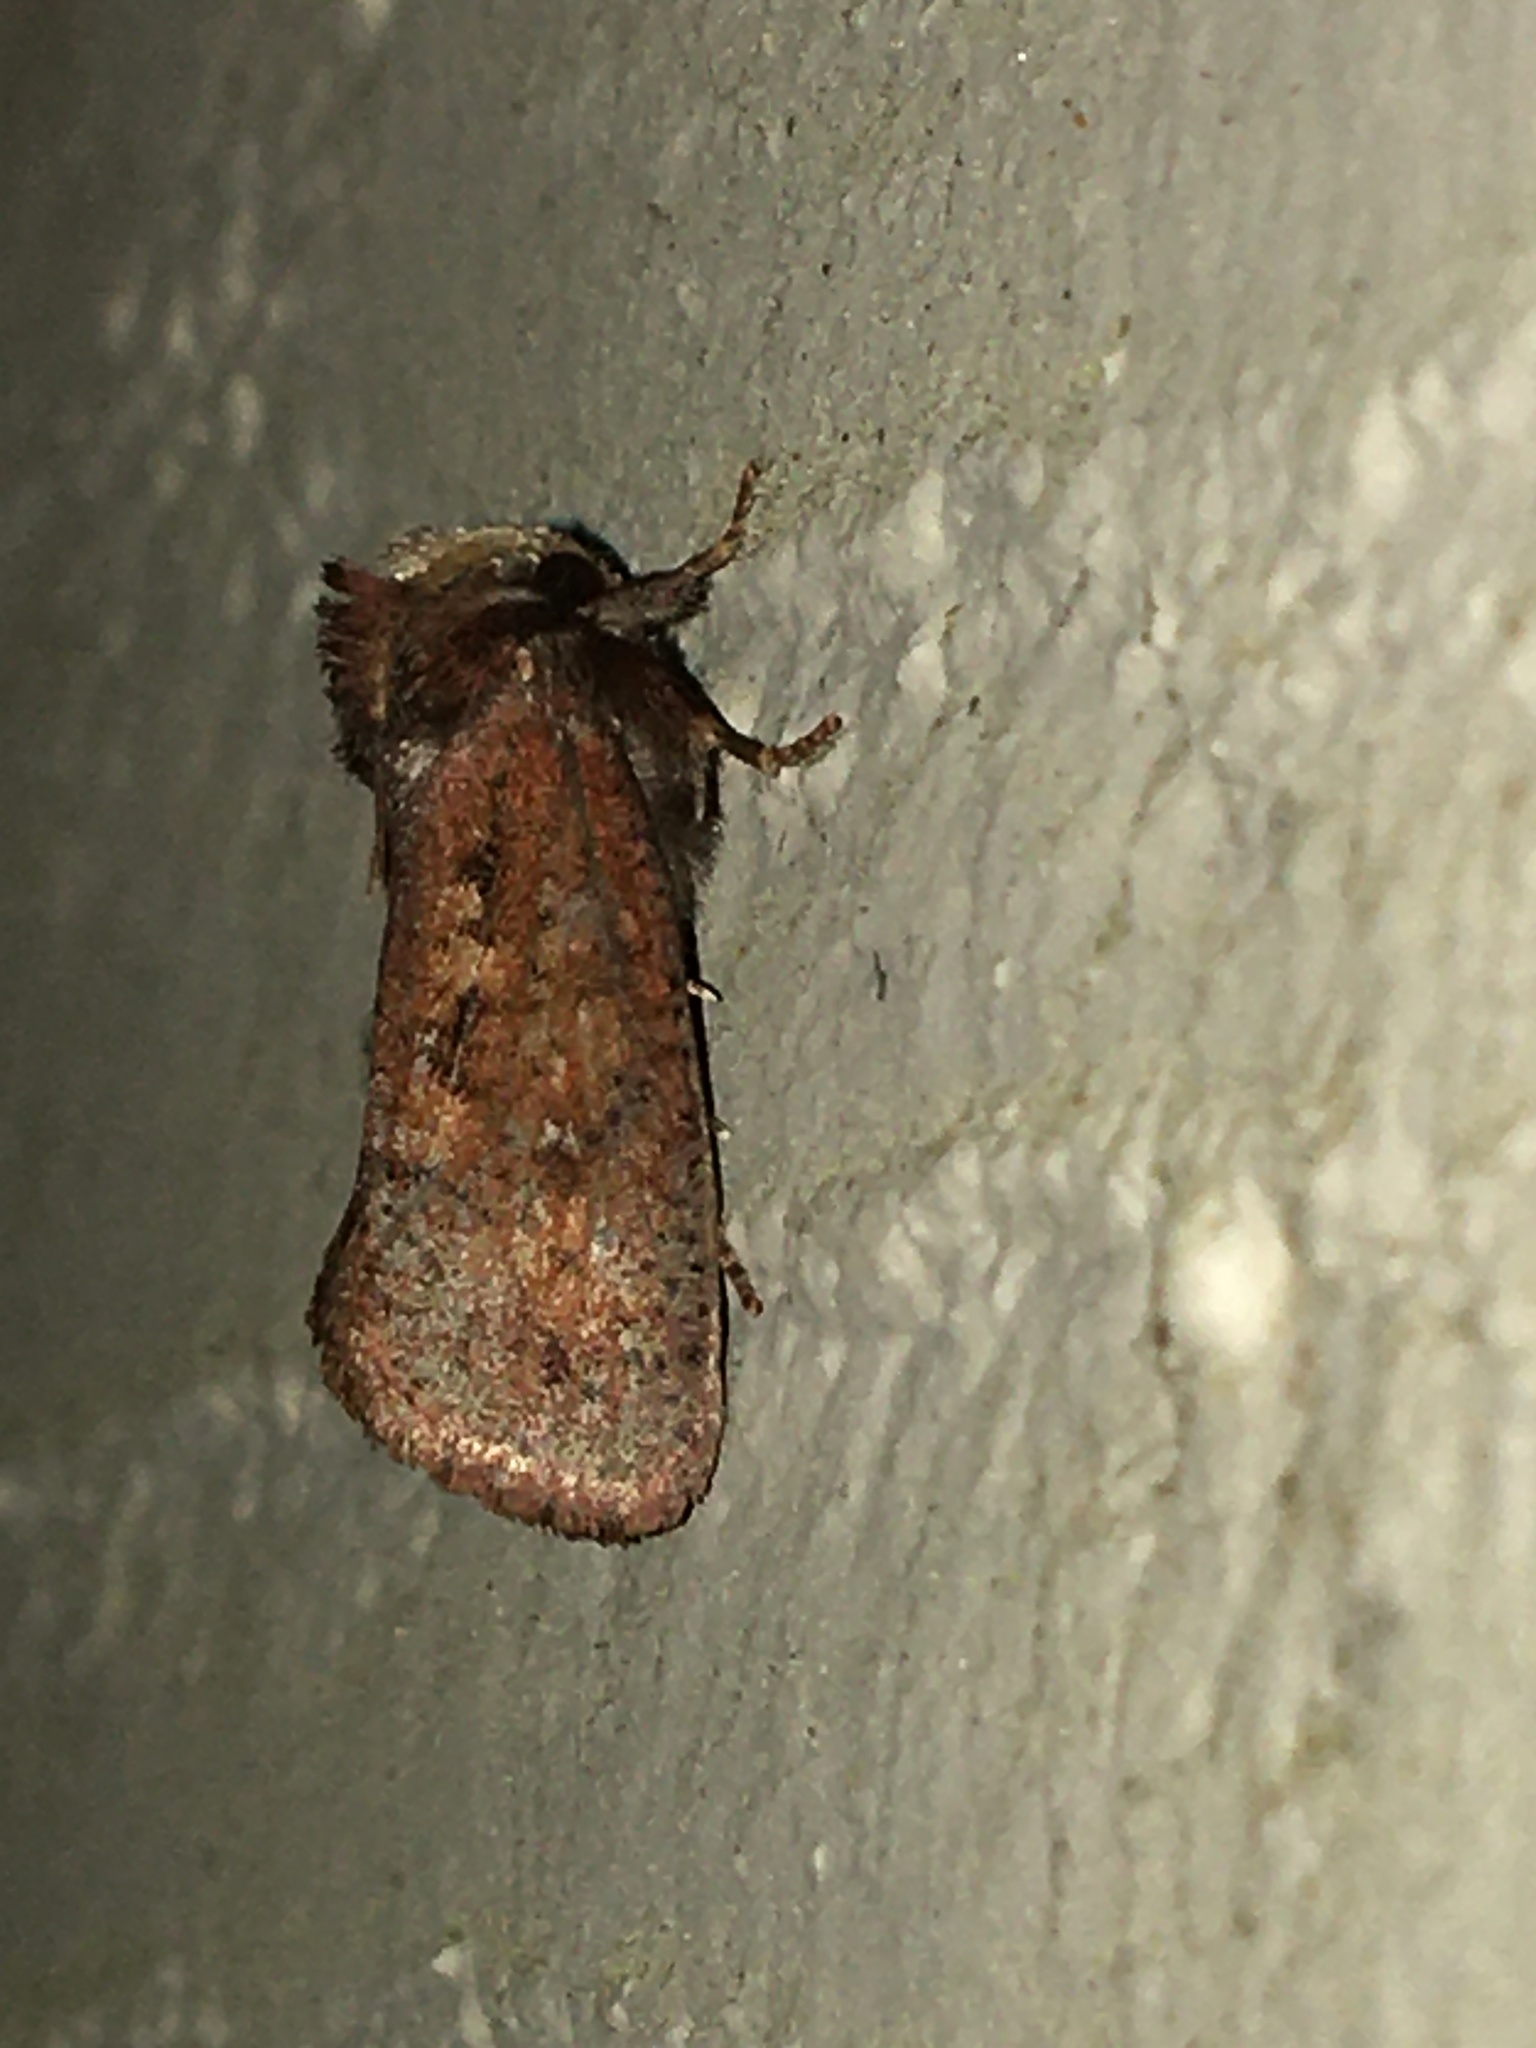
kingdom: Animalia
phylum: Arthropoda
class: Insecta
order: Lepidoptera
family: Tineidae
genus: Acrolophus
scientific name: Acrolophus plumifrontella
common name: Eastern grass tubeworm moth
